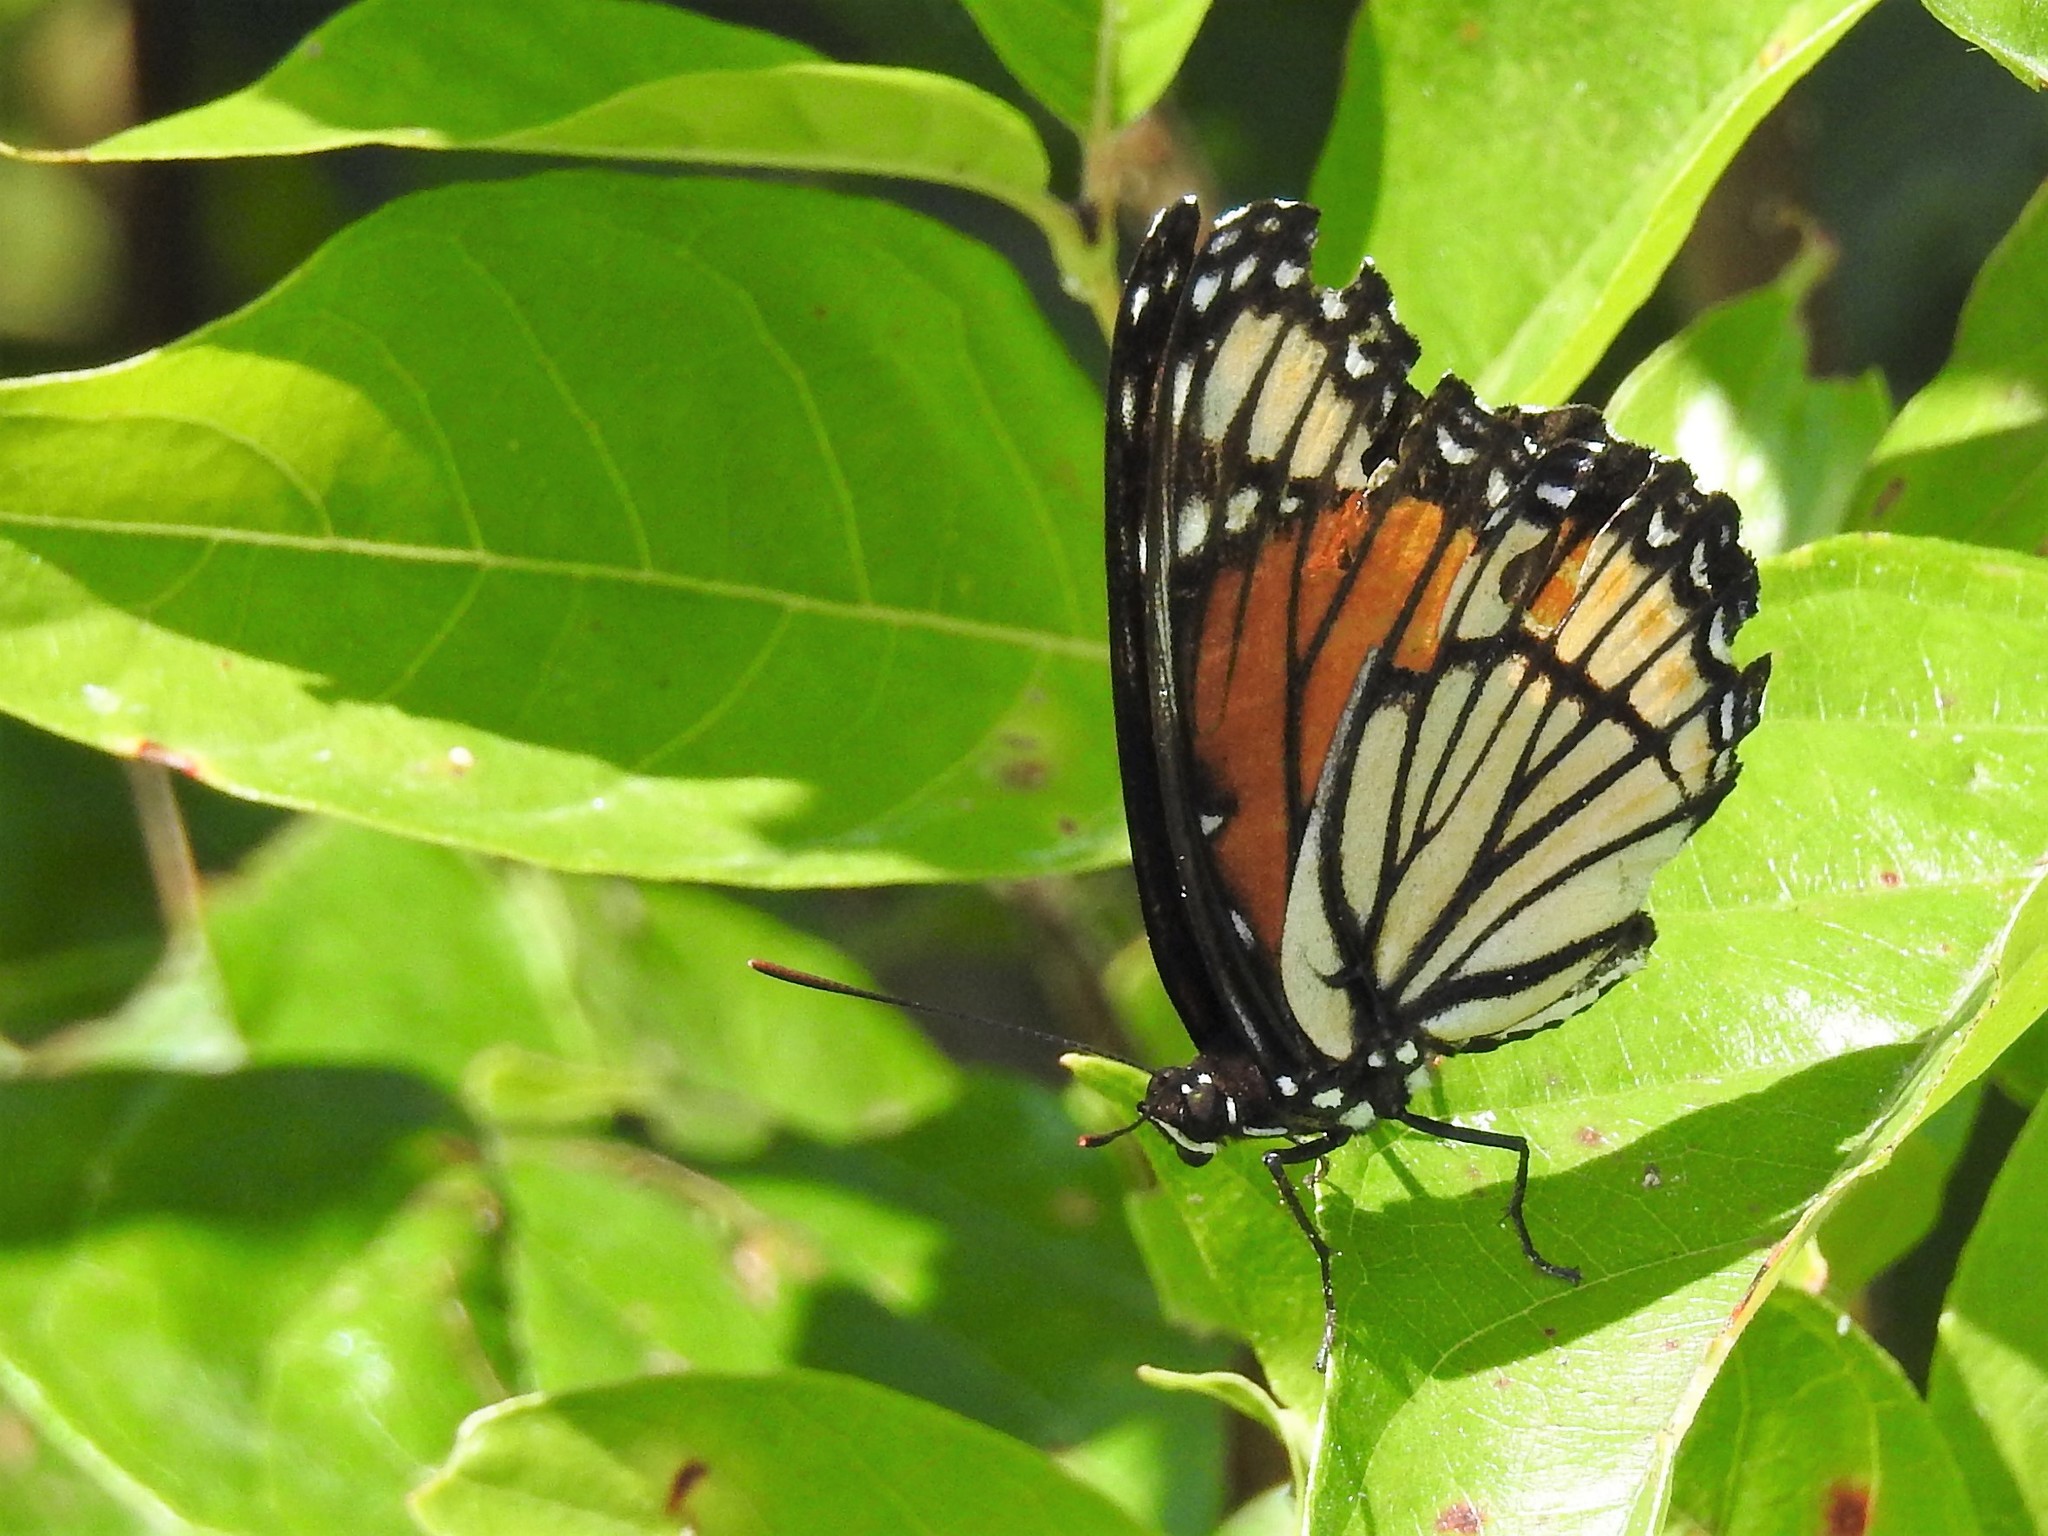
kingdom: Animalia
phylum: Arthropoda
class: Insecta
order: Lepidoptera
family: Nymphalidae
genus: Limenitis
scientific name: Limenitis archippus
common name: Viceroy
